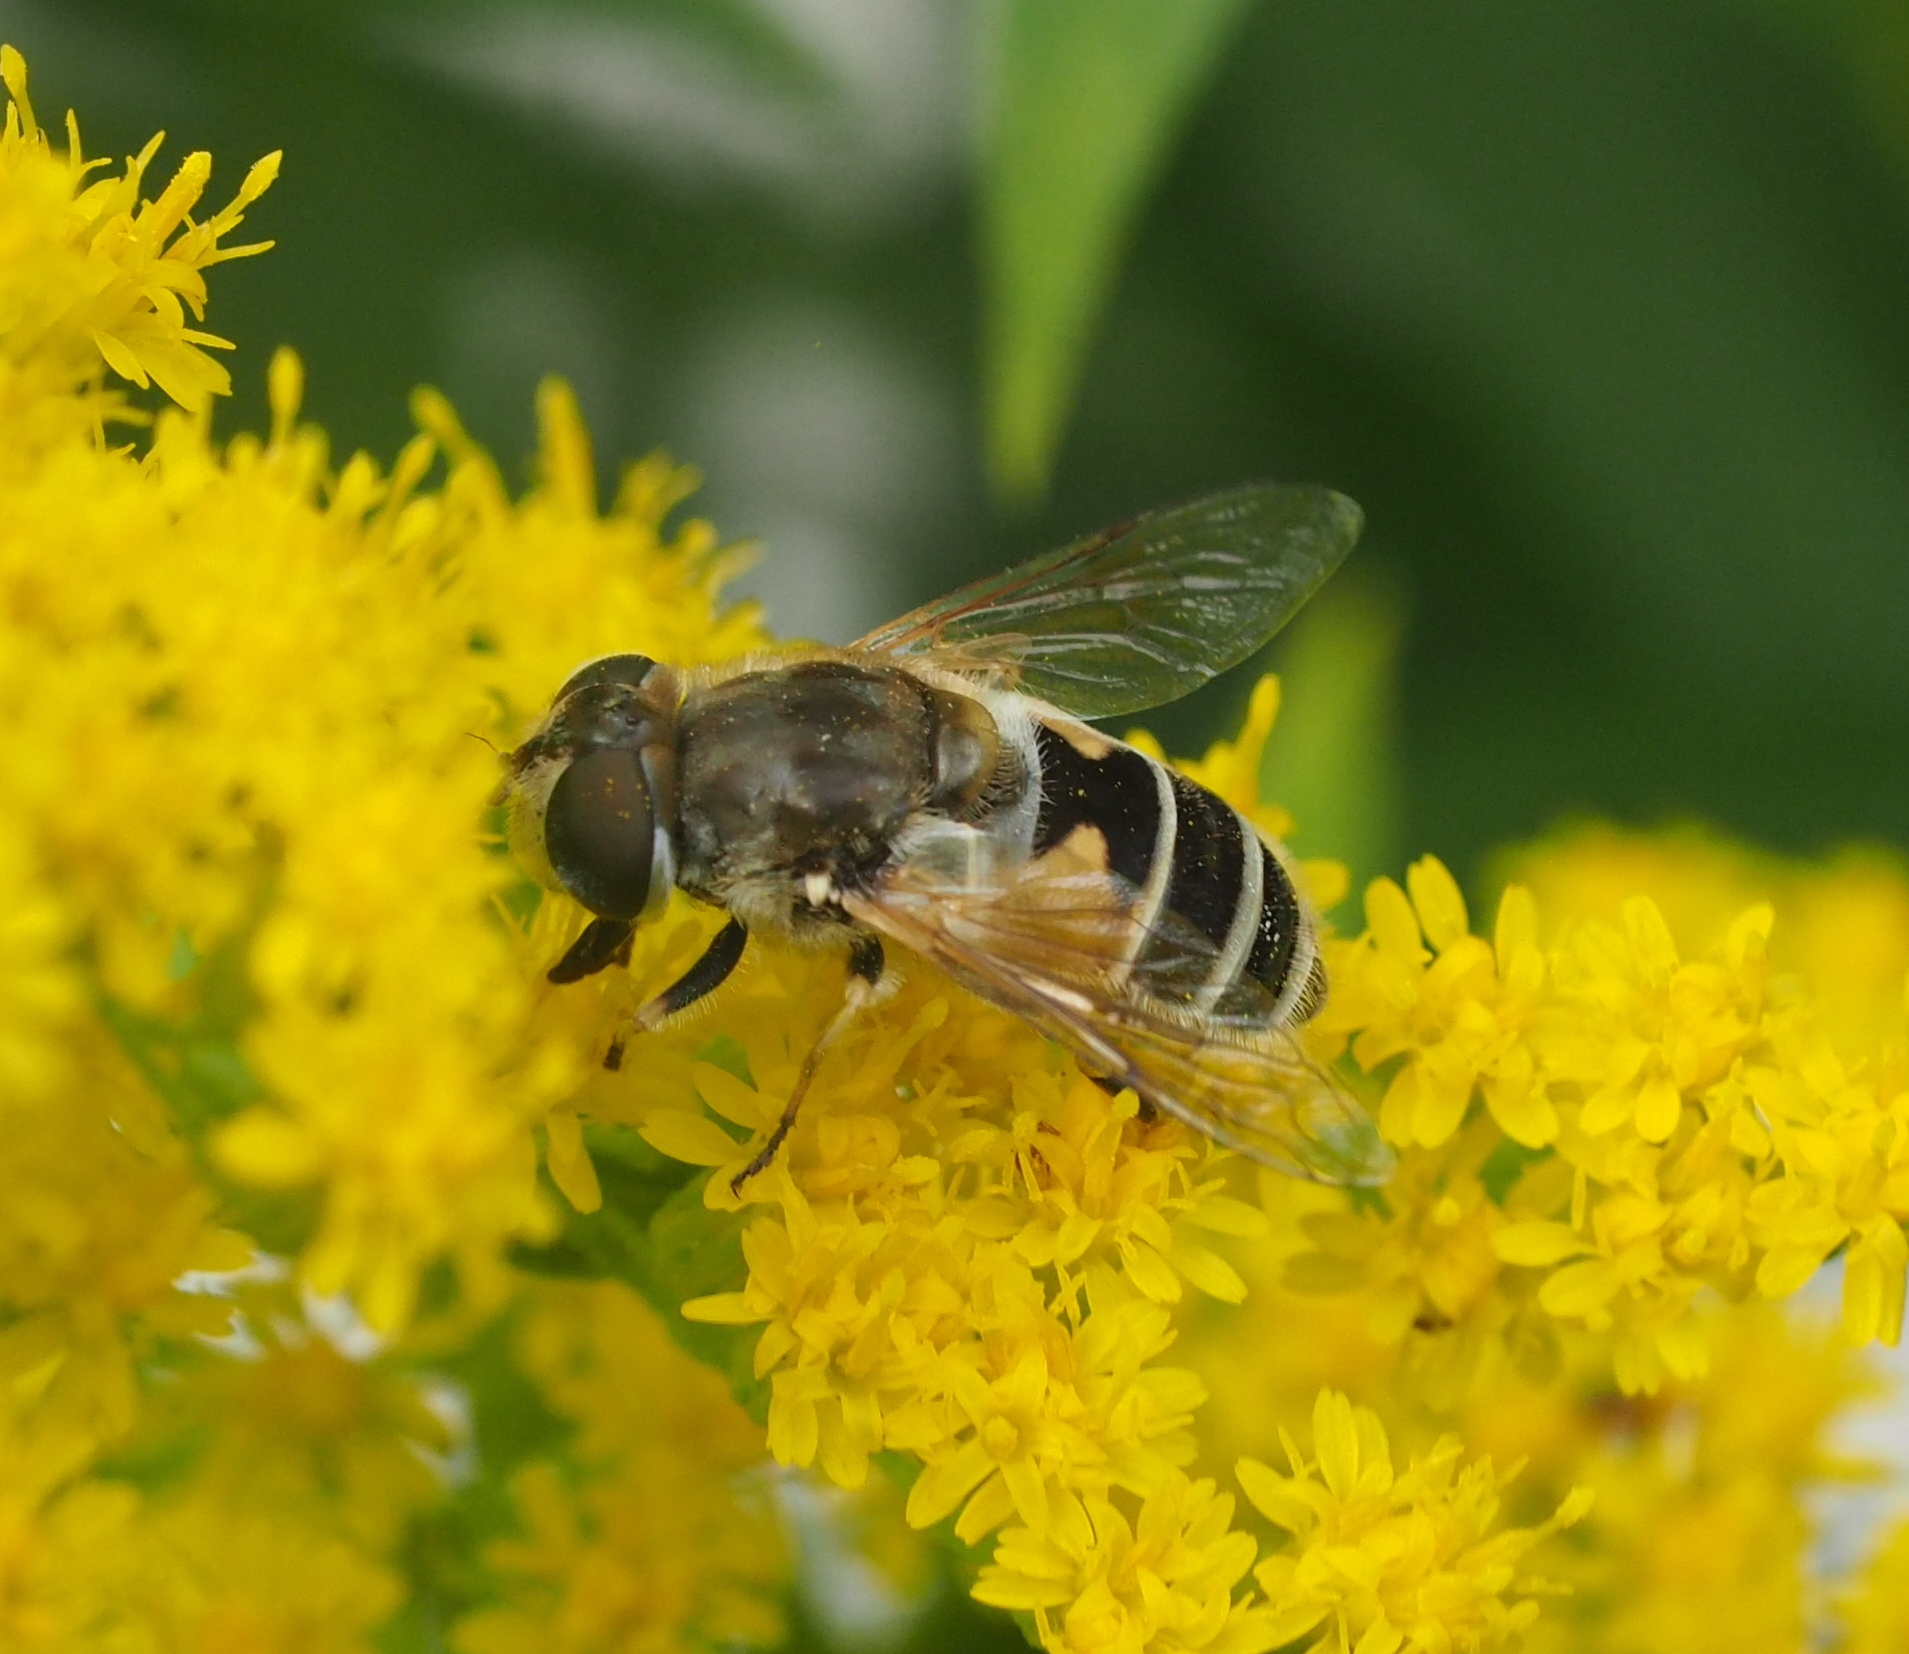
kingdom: Animalia
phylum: Arthropoda
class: Insecta
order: Diptera
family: Syrphidae
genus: Eristalis
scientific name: Eristalis arbustorum
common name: Hover fly
